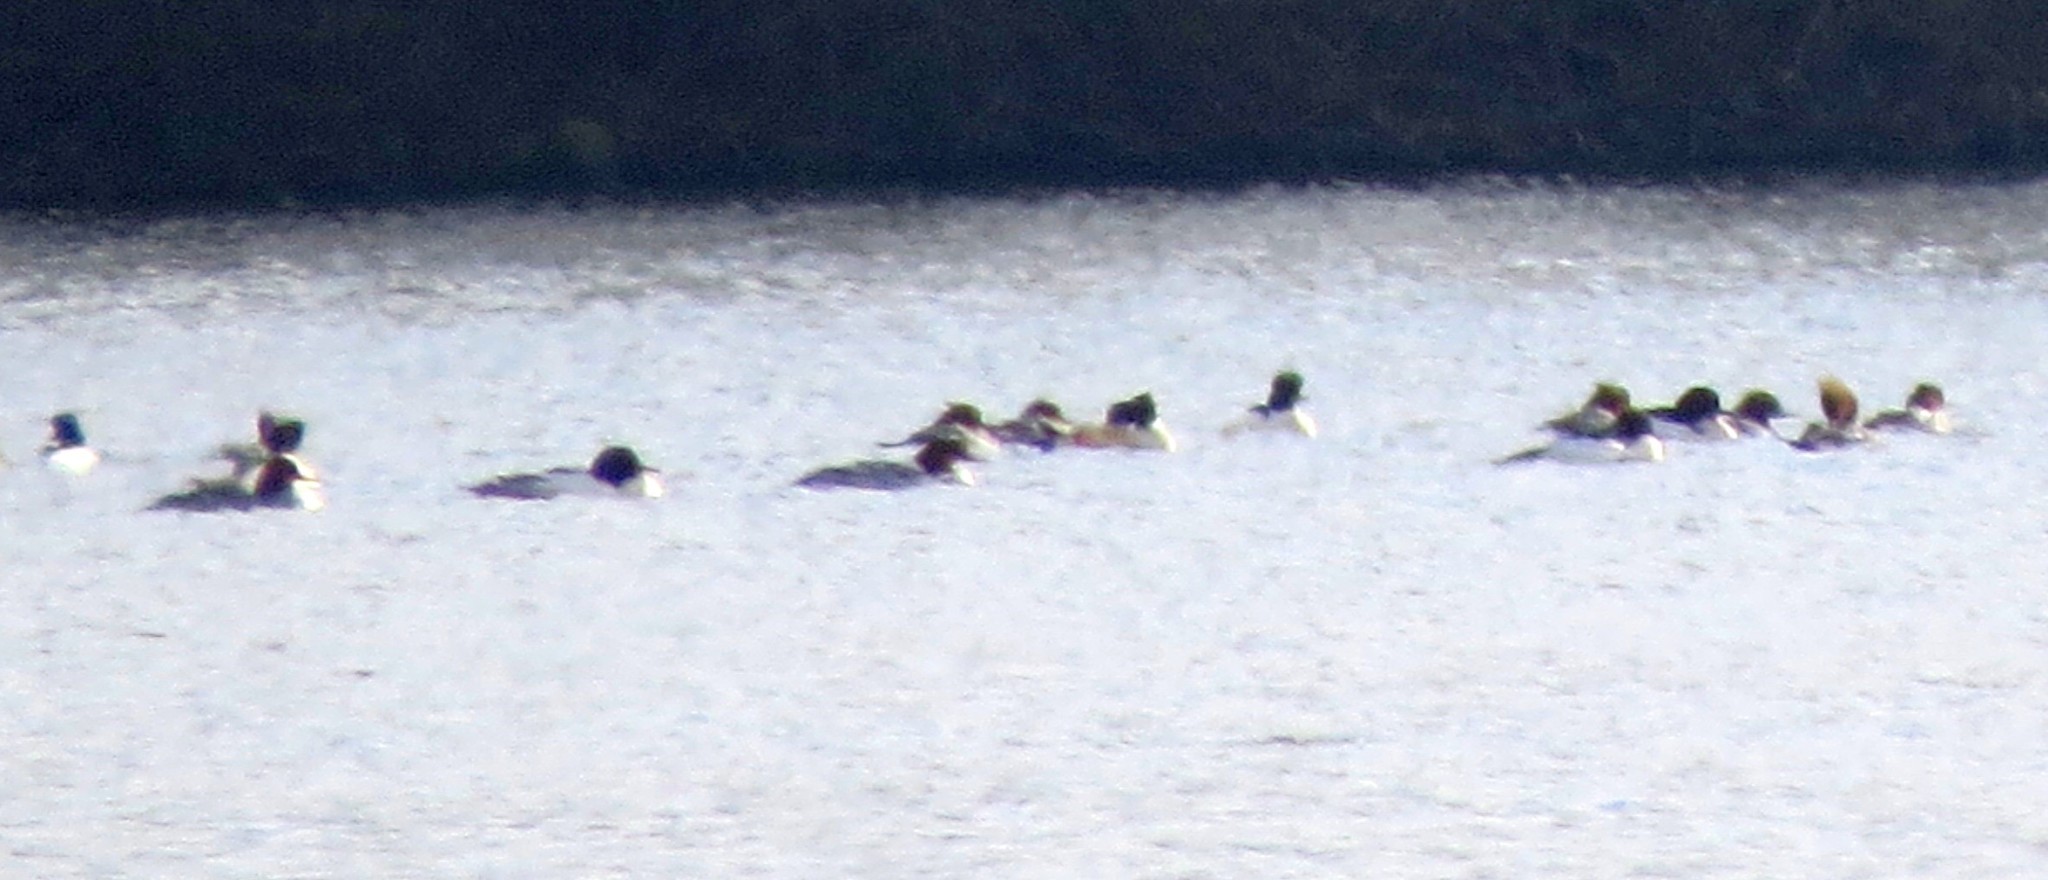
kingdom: Animalia
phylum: Chordata
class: Aves
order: Anseriformes
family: Anatidae
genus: Mergus
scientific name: Mergus merganser
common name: Common merganser
